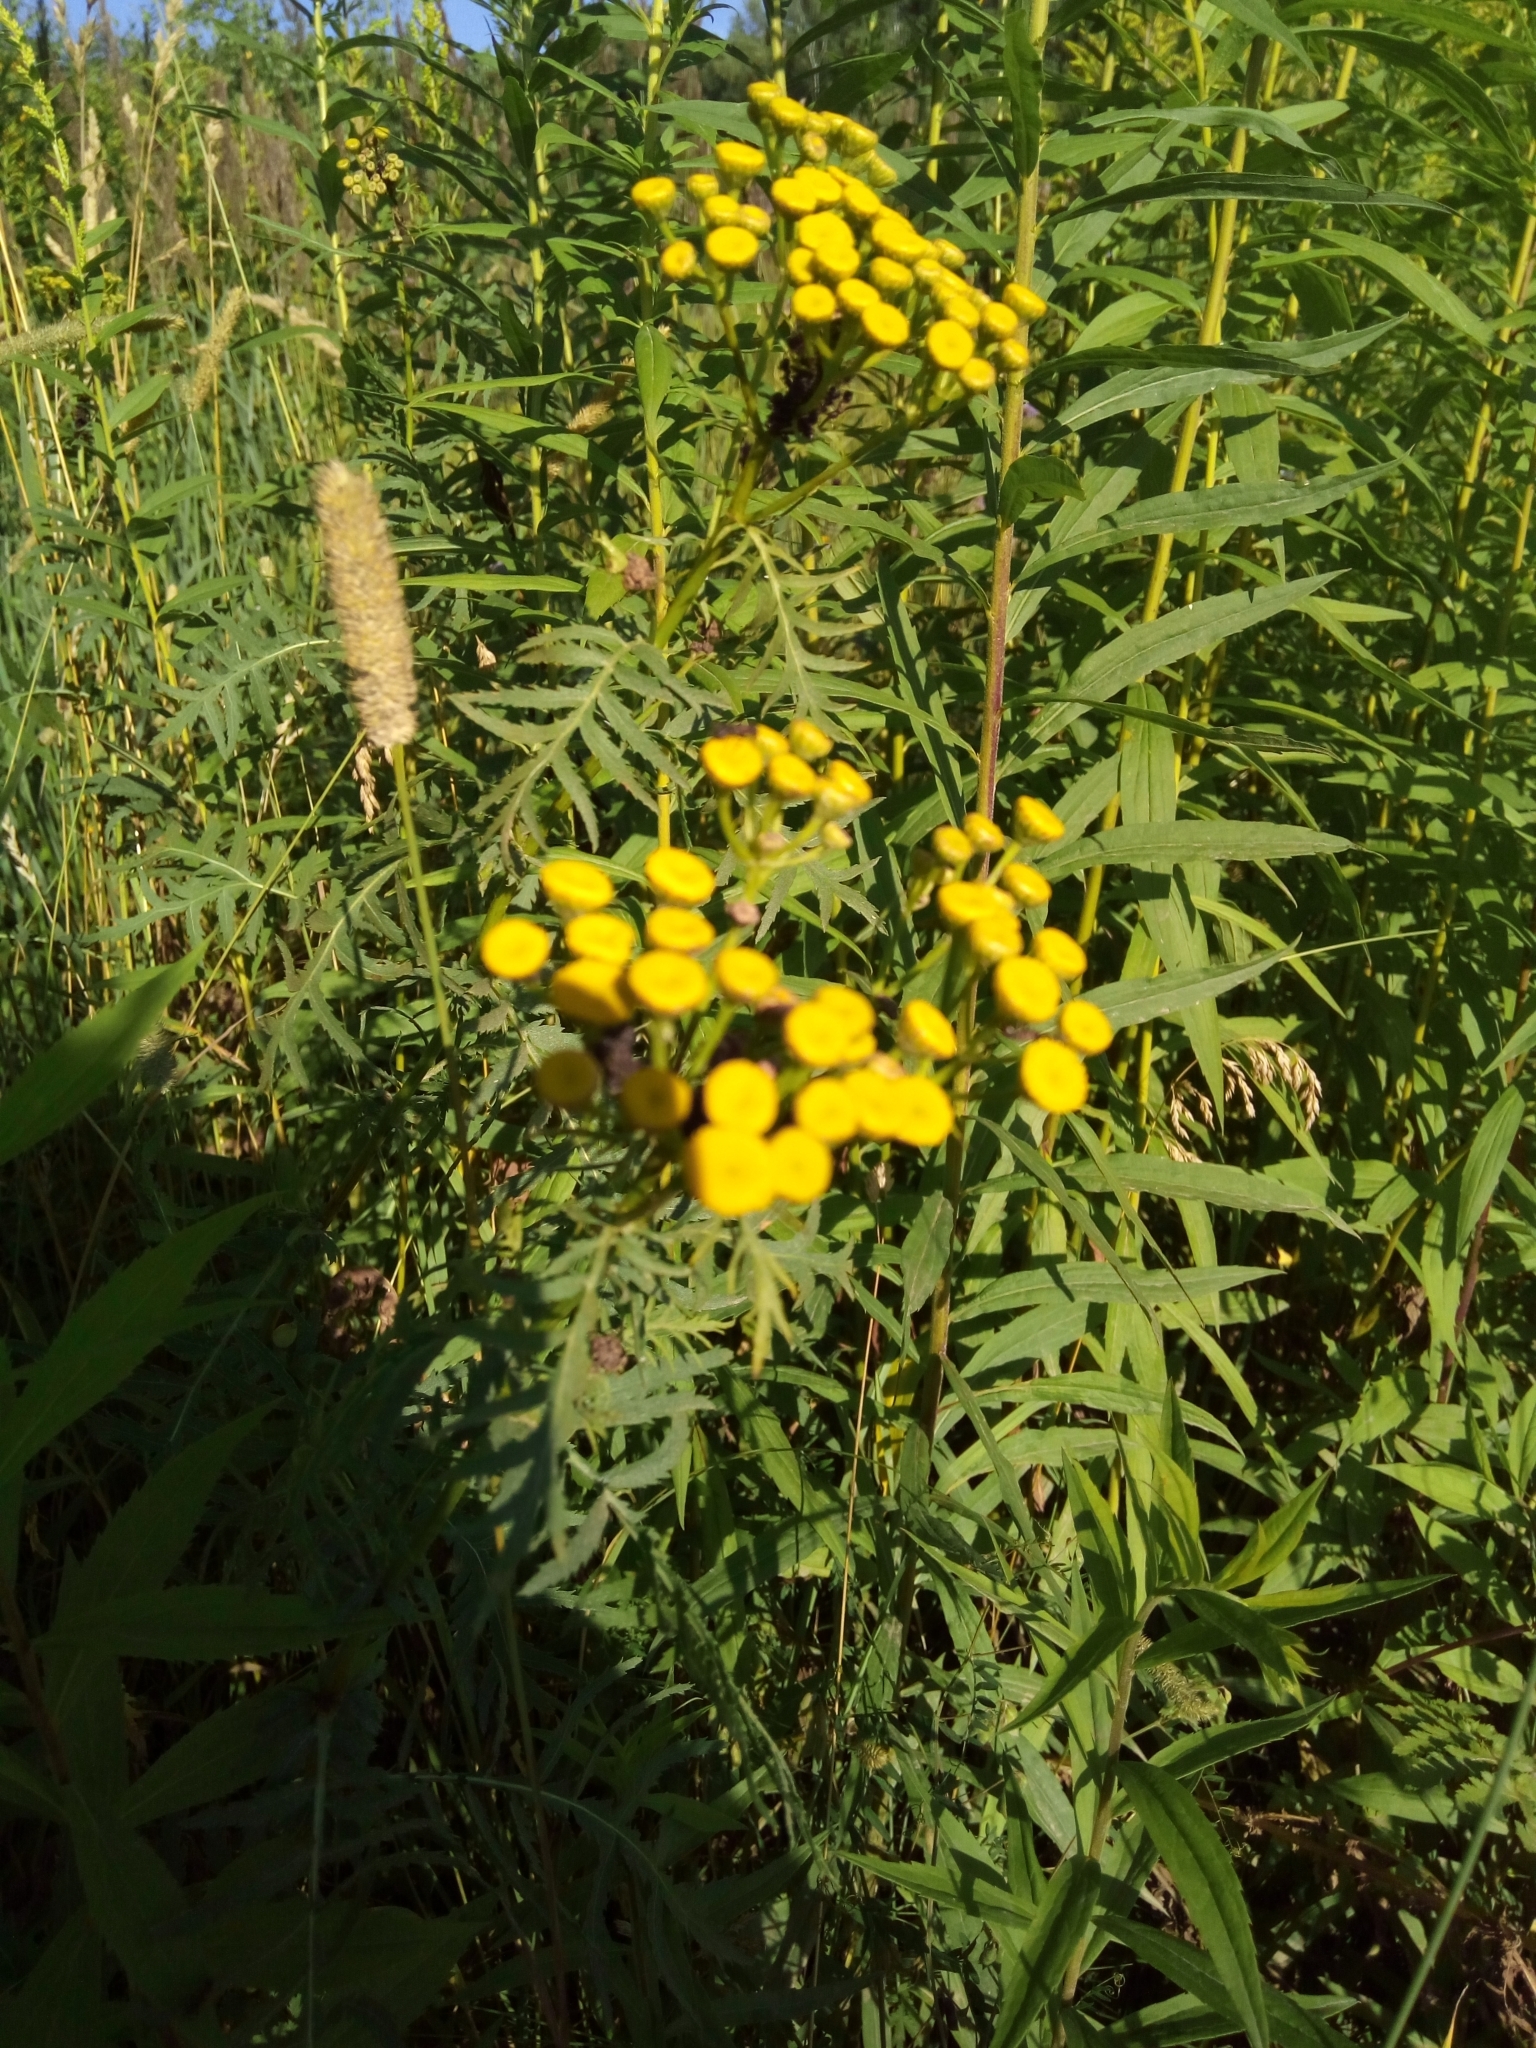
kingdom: Plantae
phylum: Tracheophyta
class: Magnoliopsida
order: Asterales
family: Asteraceae
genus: Tanacetum
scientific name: Tanacetum vulgare
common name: Common tansy
